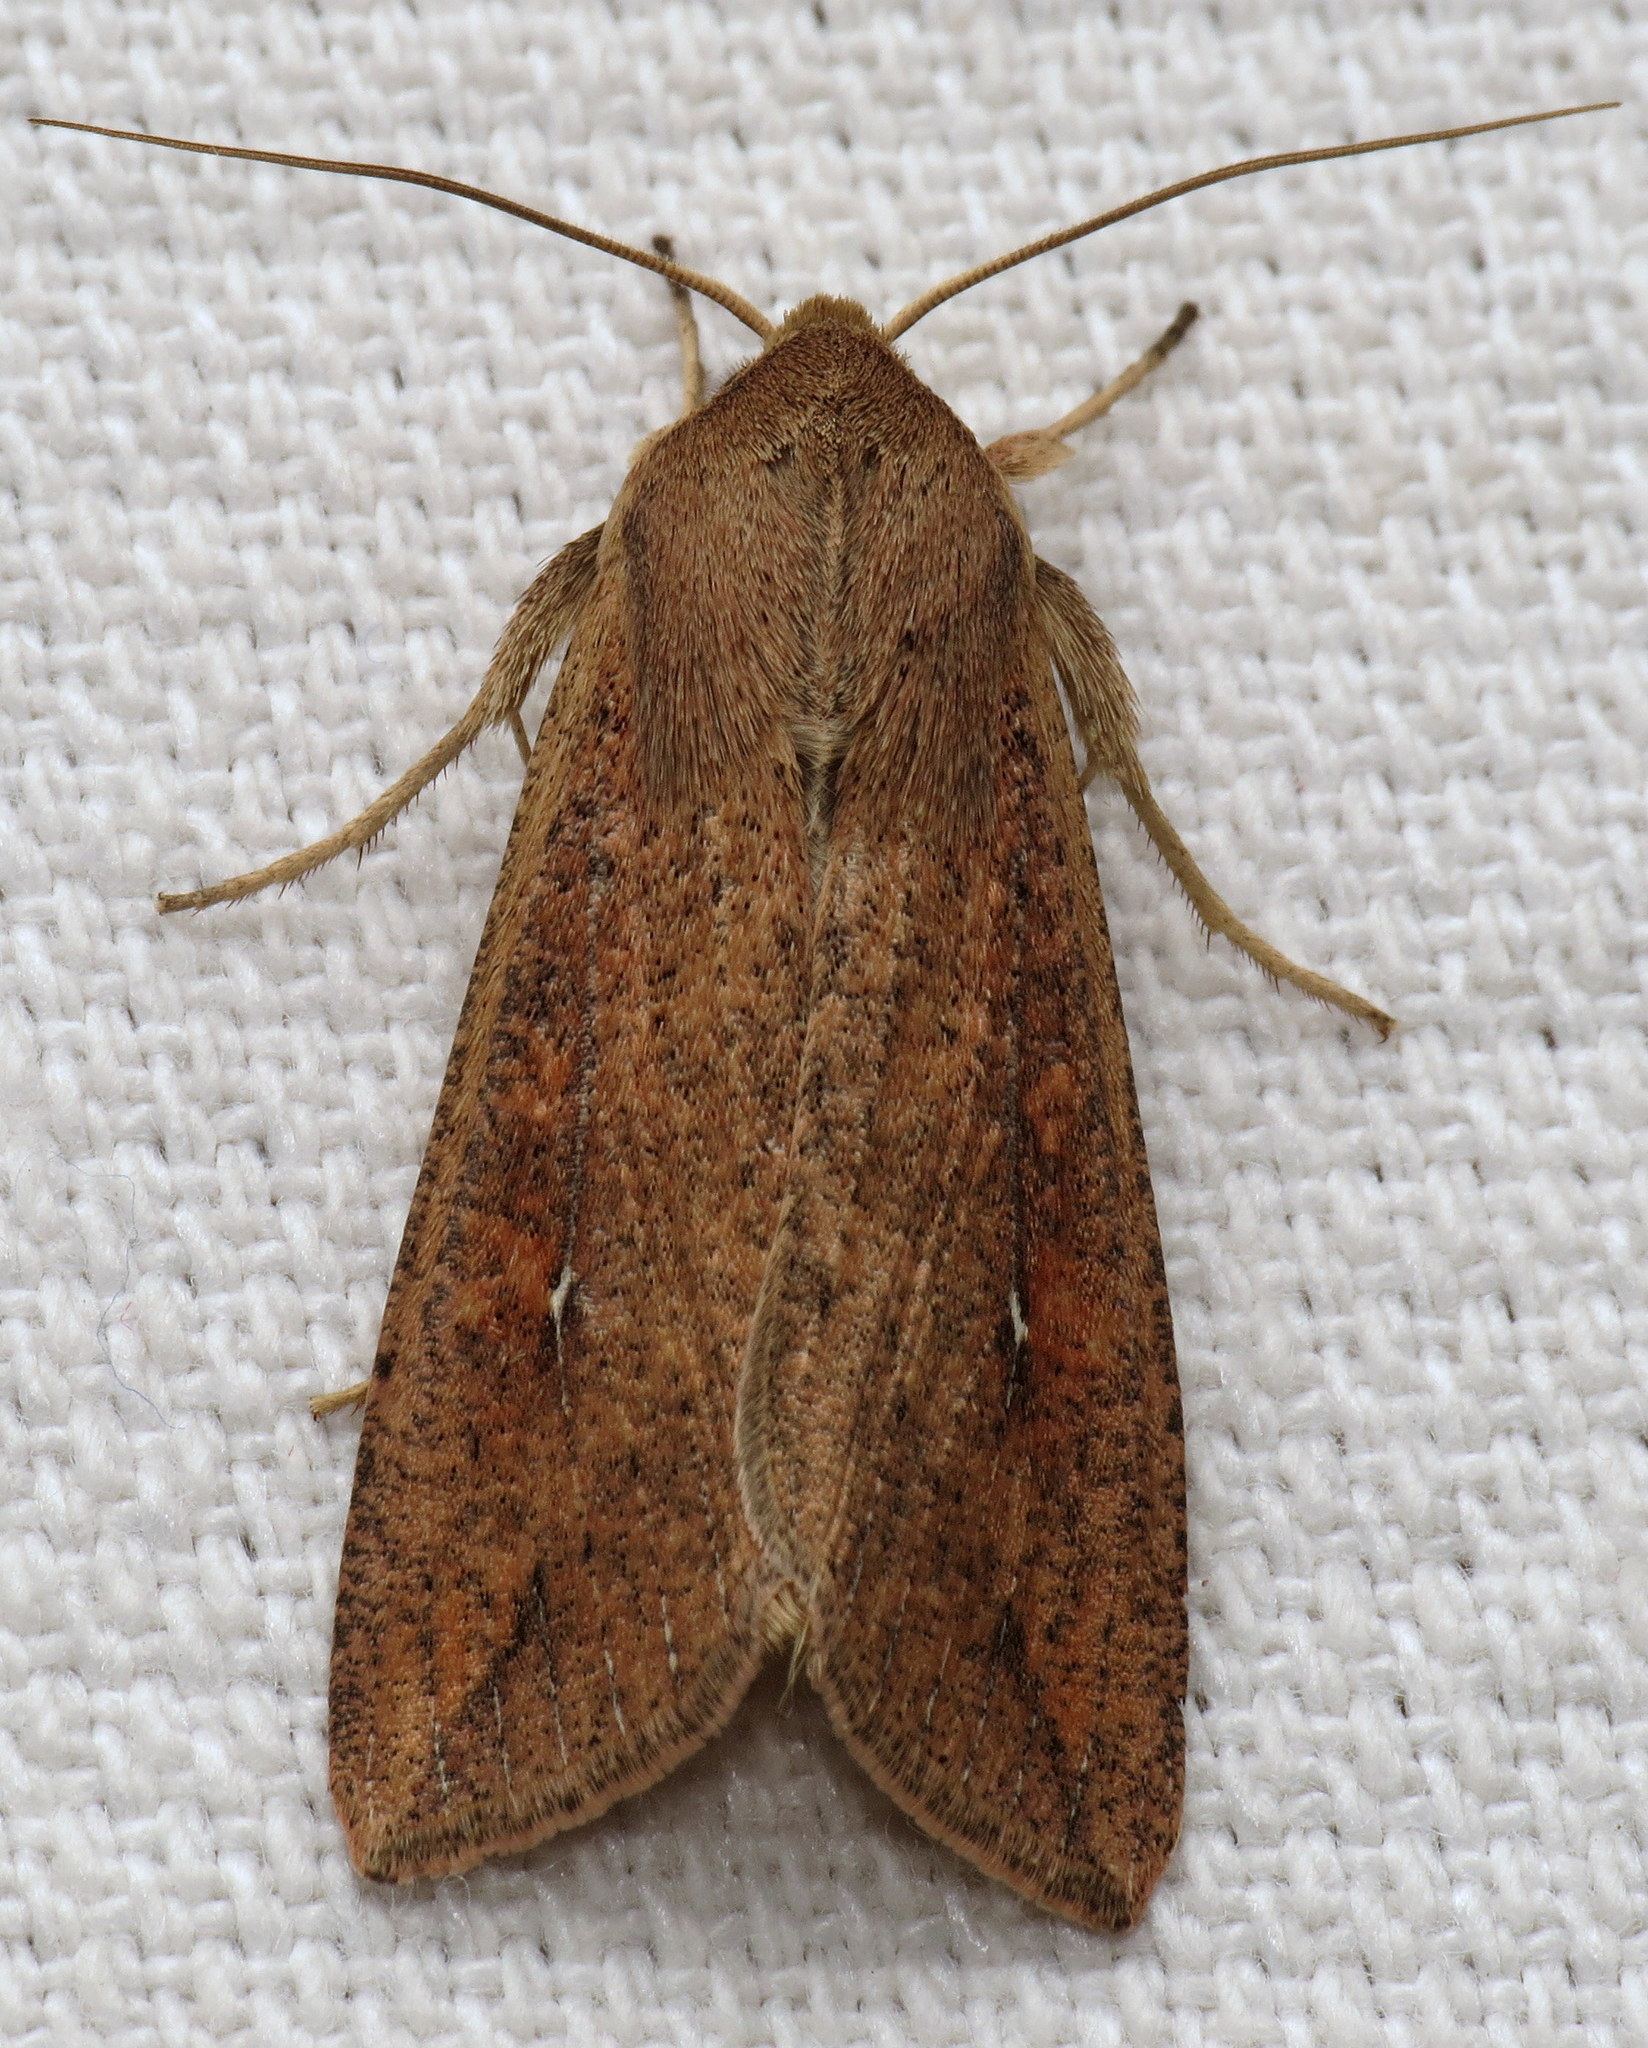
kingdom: Animalia
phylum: Arthropoda
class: Insecta
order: Lepidoptera
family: Noctuidae
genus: Mythimna
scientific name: Mythimna unipuncta
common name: White-speck
